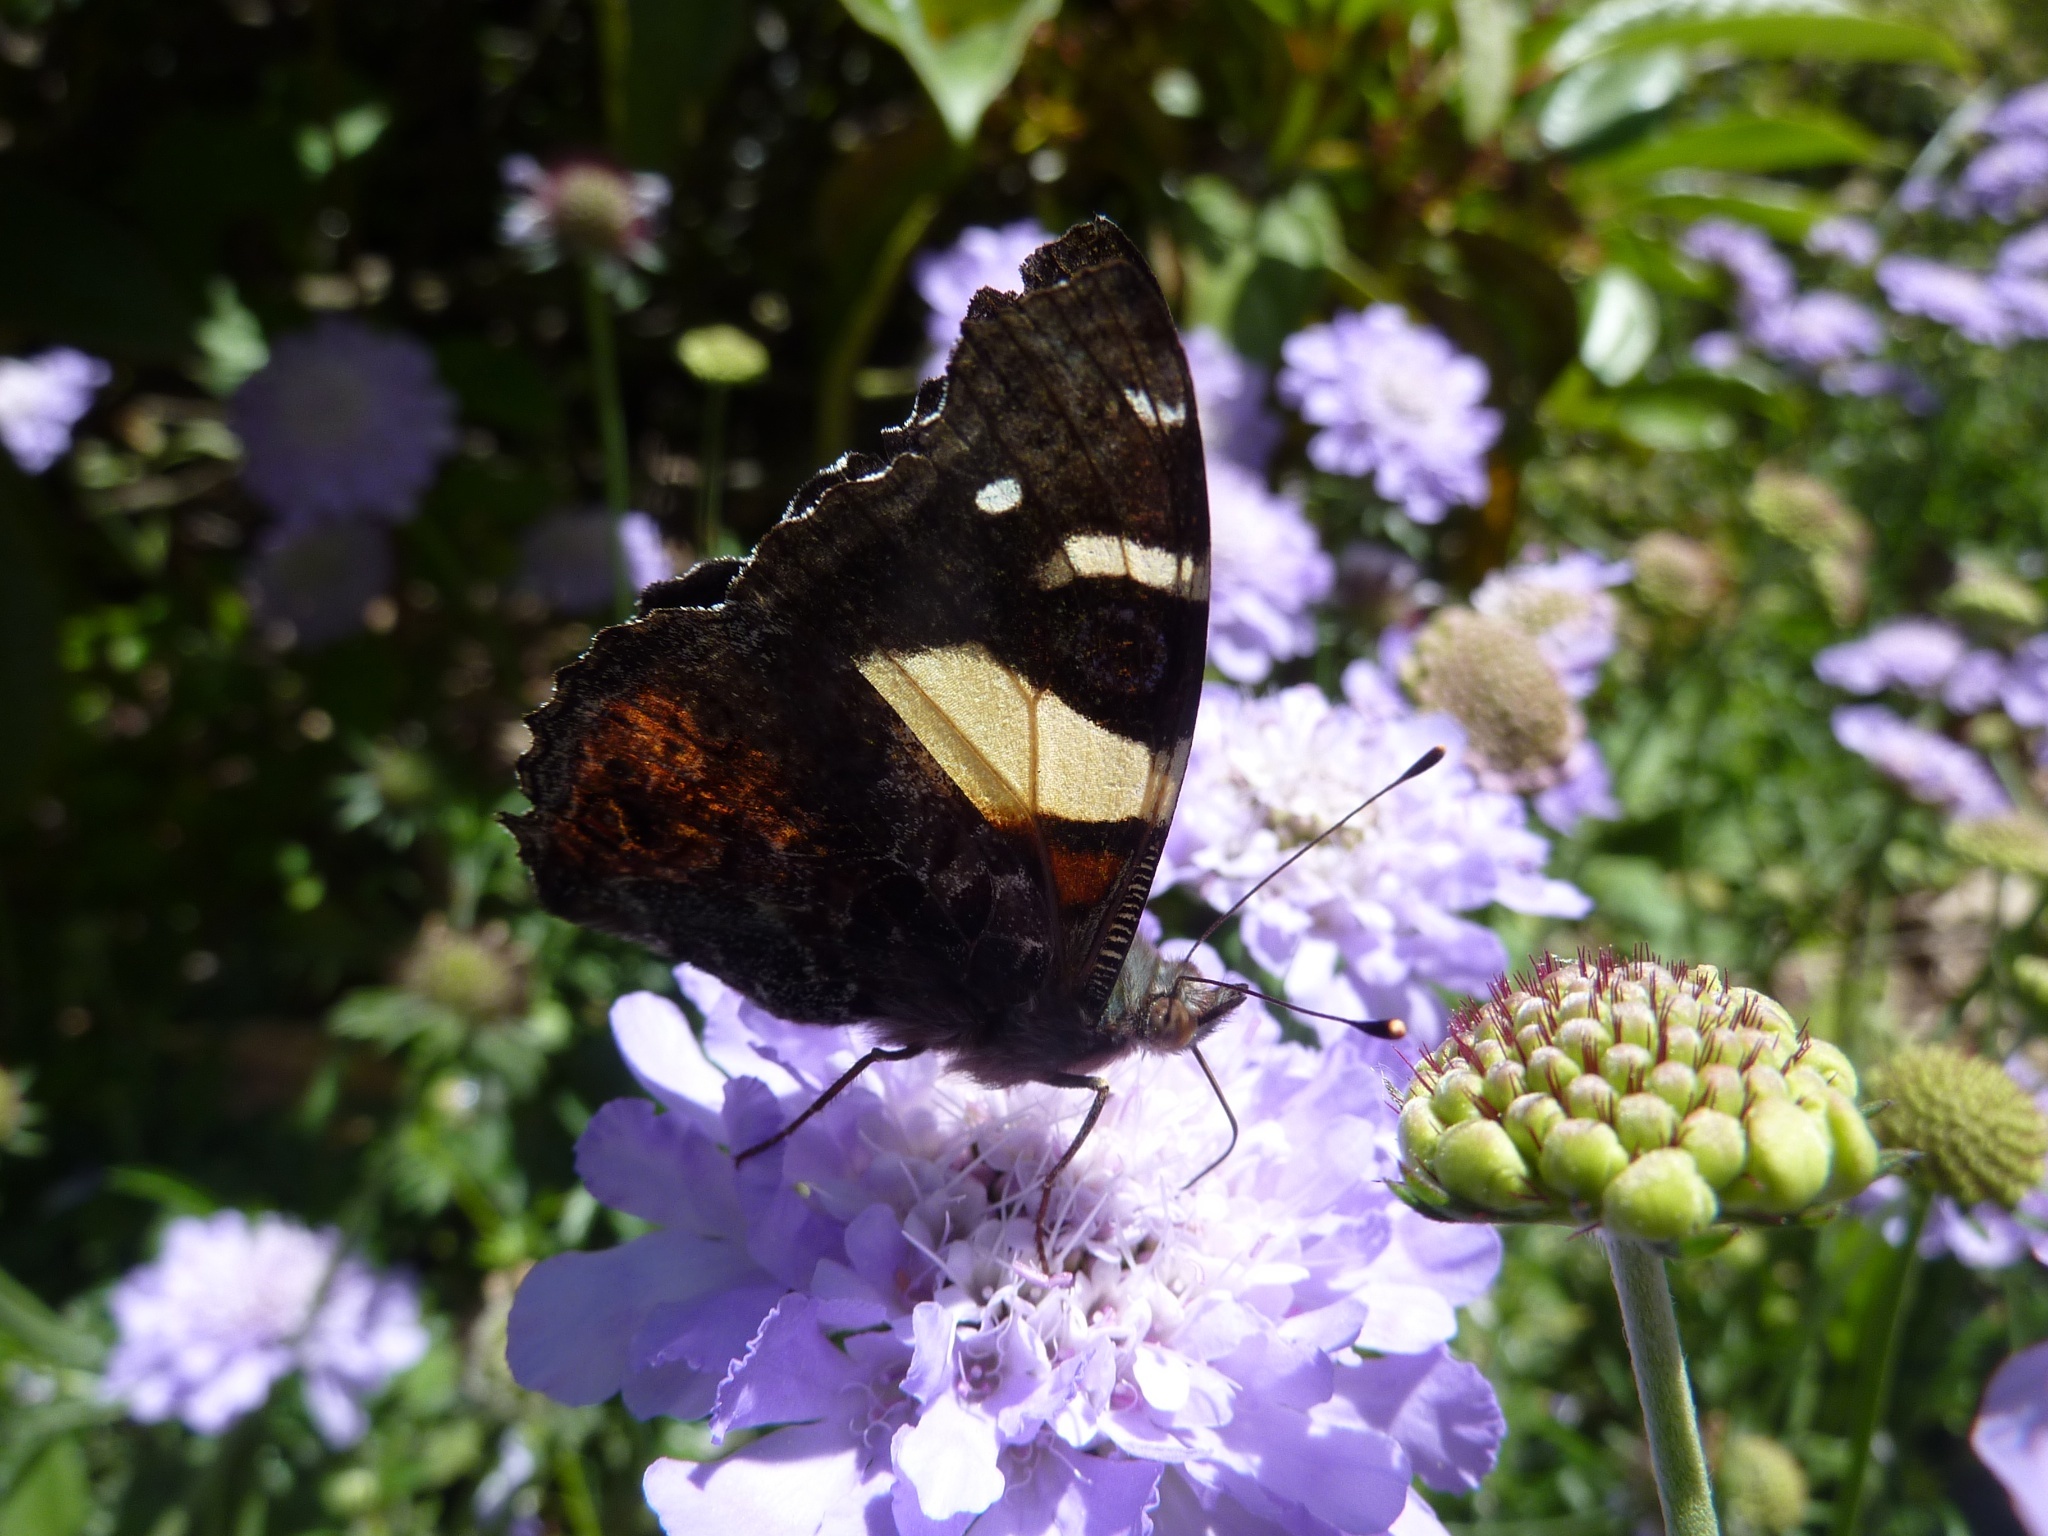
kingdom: Animalia
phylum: Arthropoda
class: Insecta
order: Lepidoptera
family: Nymphalidae
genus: Vanessa
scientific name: Vanessa itea
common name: Yellow admiral
